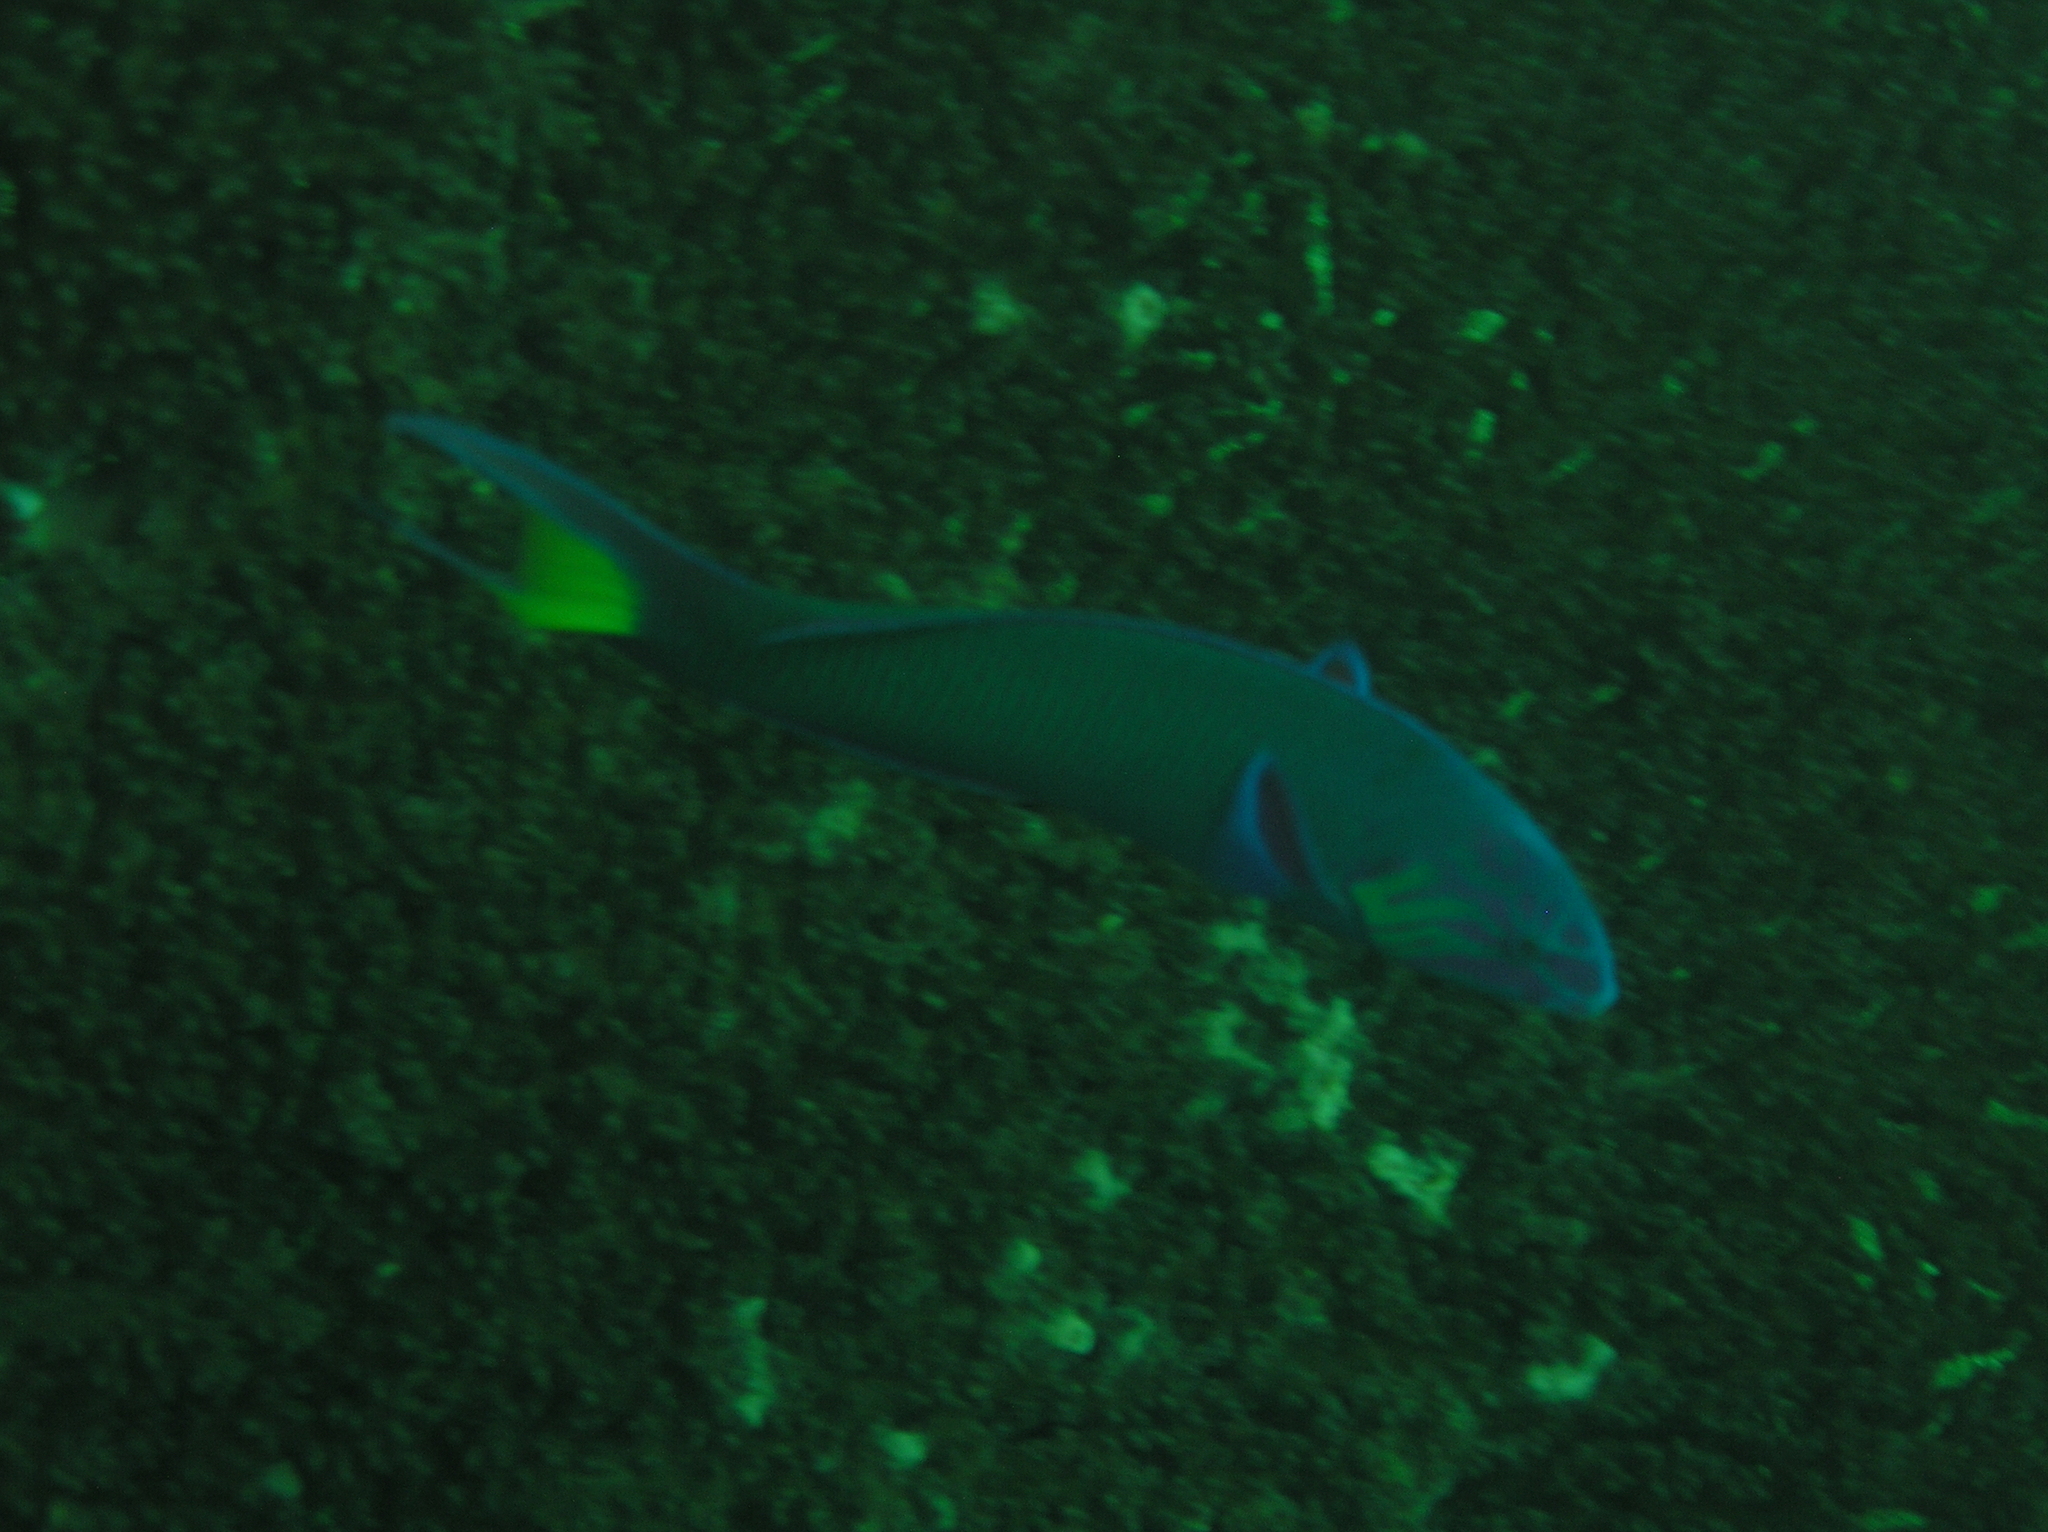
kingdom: Animalia
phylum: Chordata
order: Perciformes
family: Labridae
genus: Thalassoma
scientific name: Thalassoma lunare
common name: Blue wrasse
